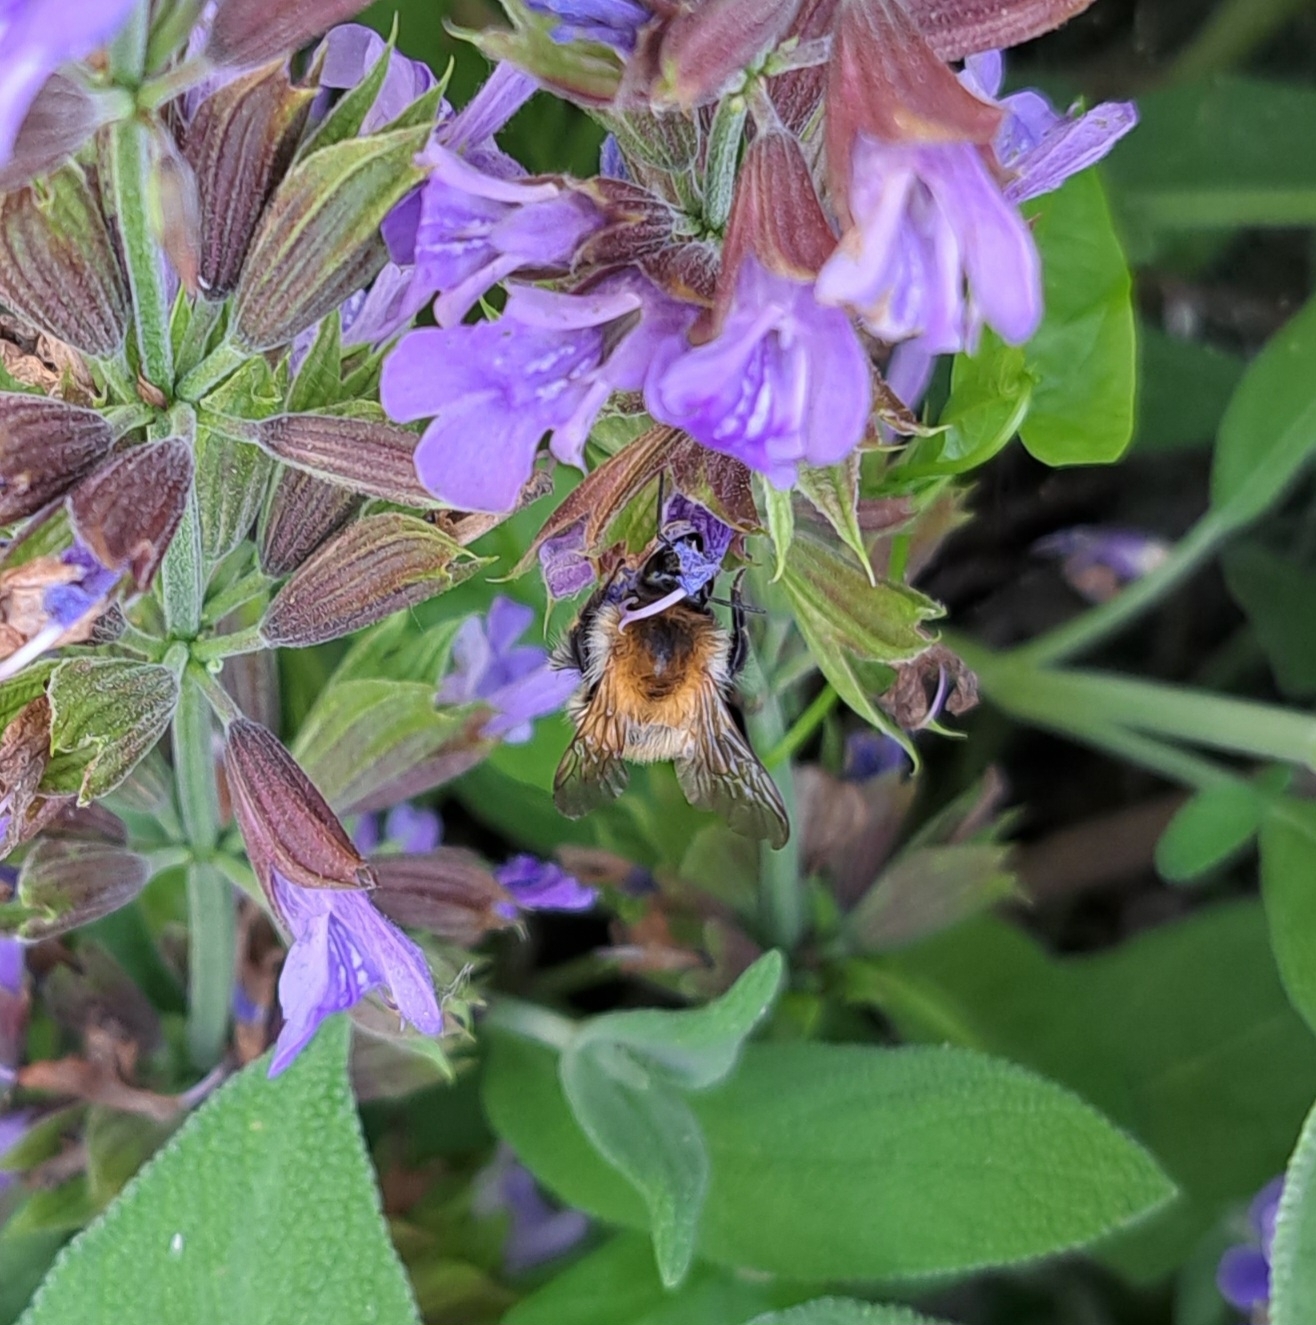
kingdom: Animalia
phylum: Arthropoda
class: Insecta
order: Hymenoptera
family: Apidae
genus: Bombus
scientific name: Bombus pascuorum
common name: Common carder bee
